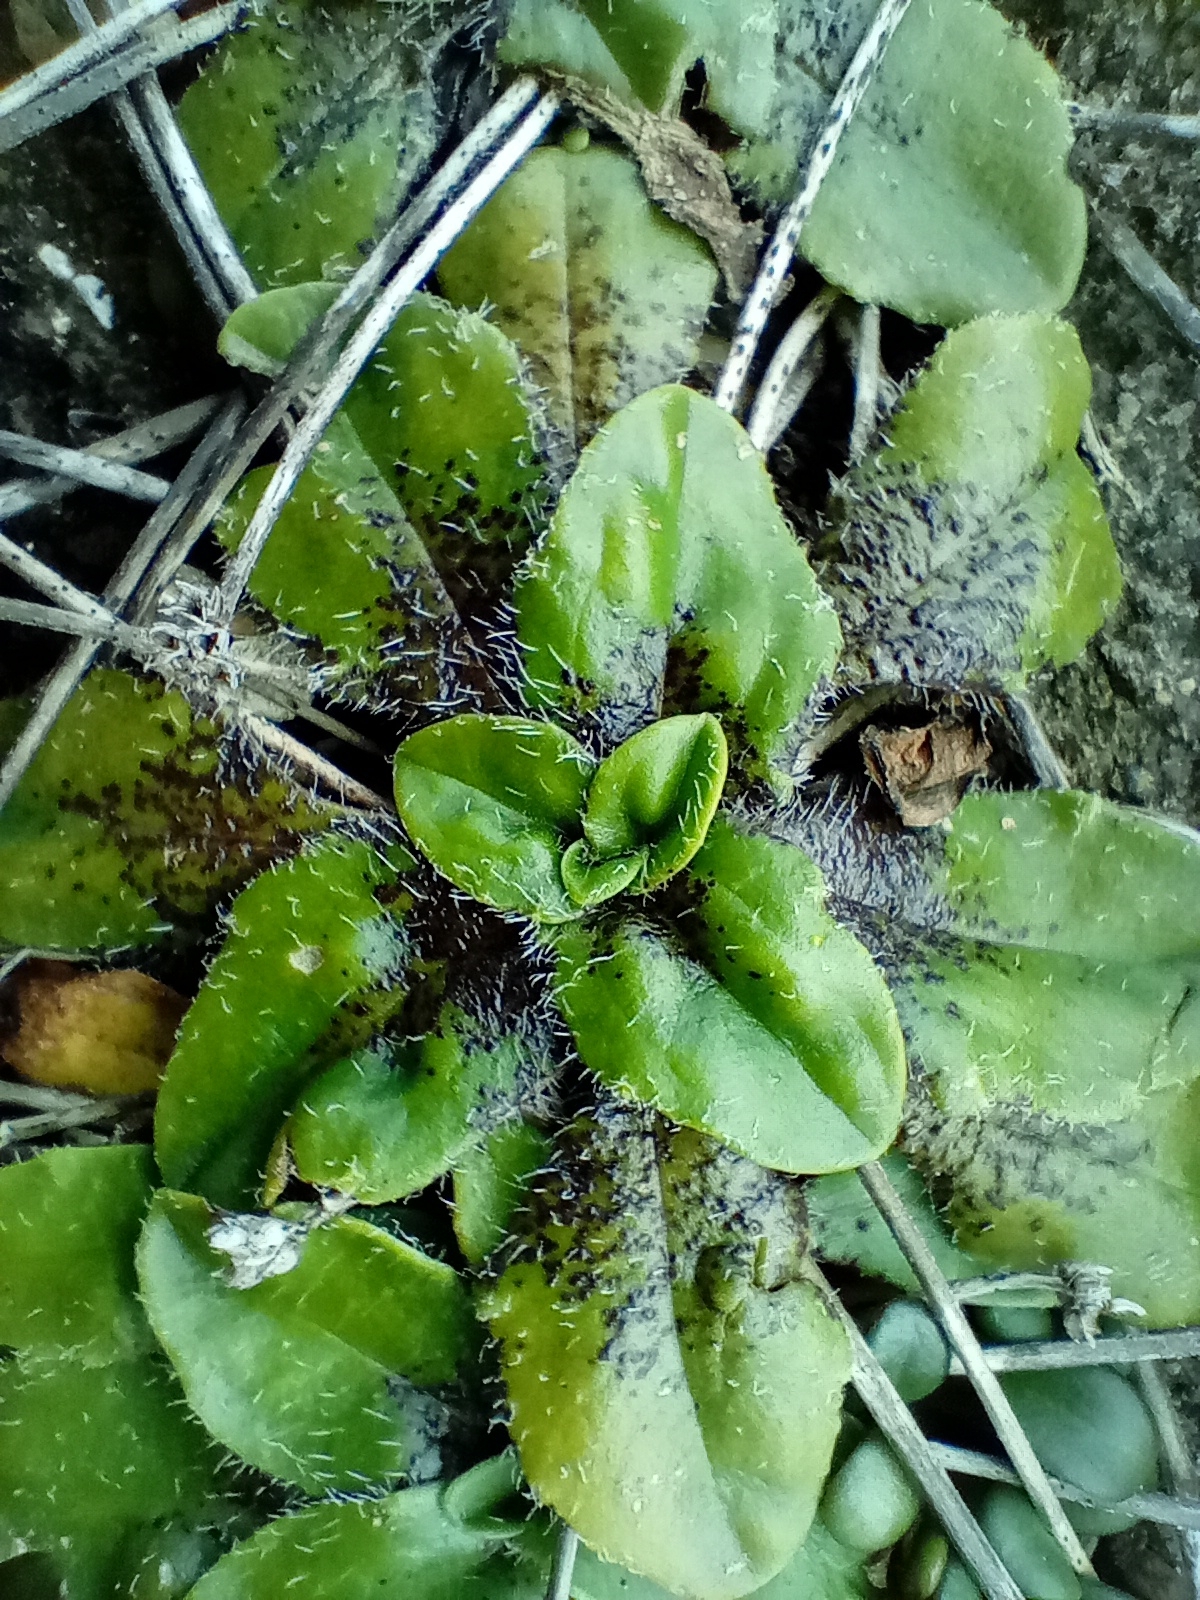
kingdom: Plantae
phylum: Tracheophyta
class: Magnoliopsida
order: Lamiales
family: Plantaginaceae
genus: Plantago
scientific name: Plantago raoulii
